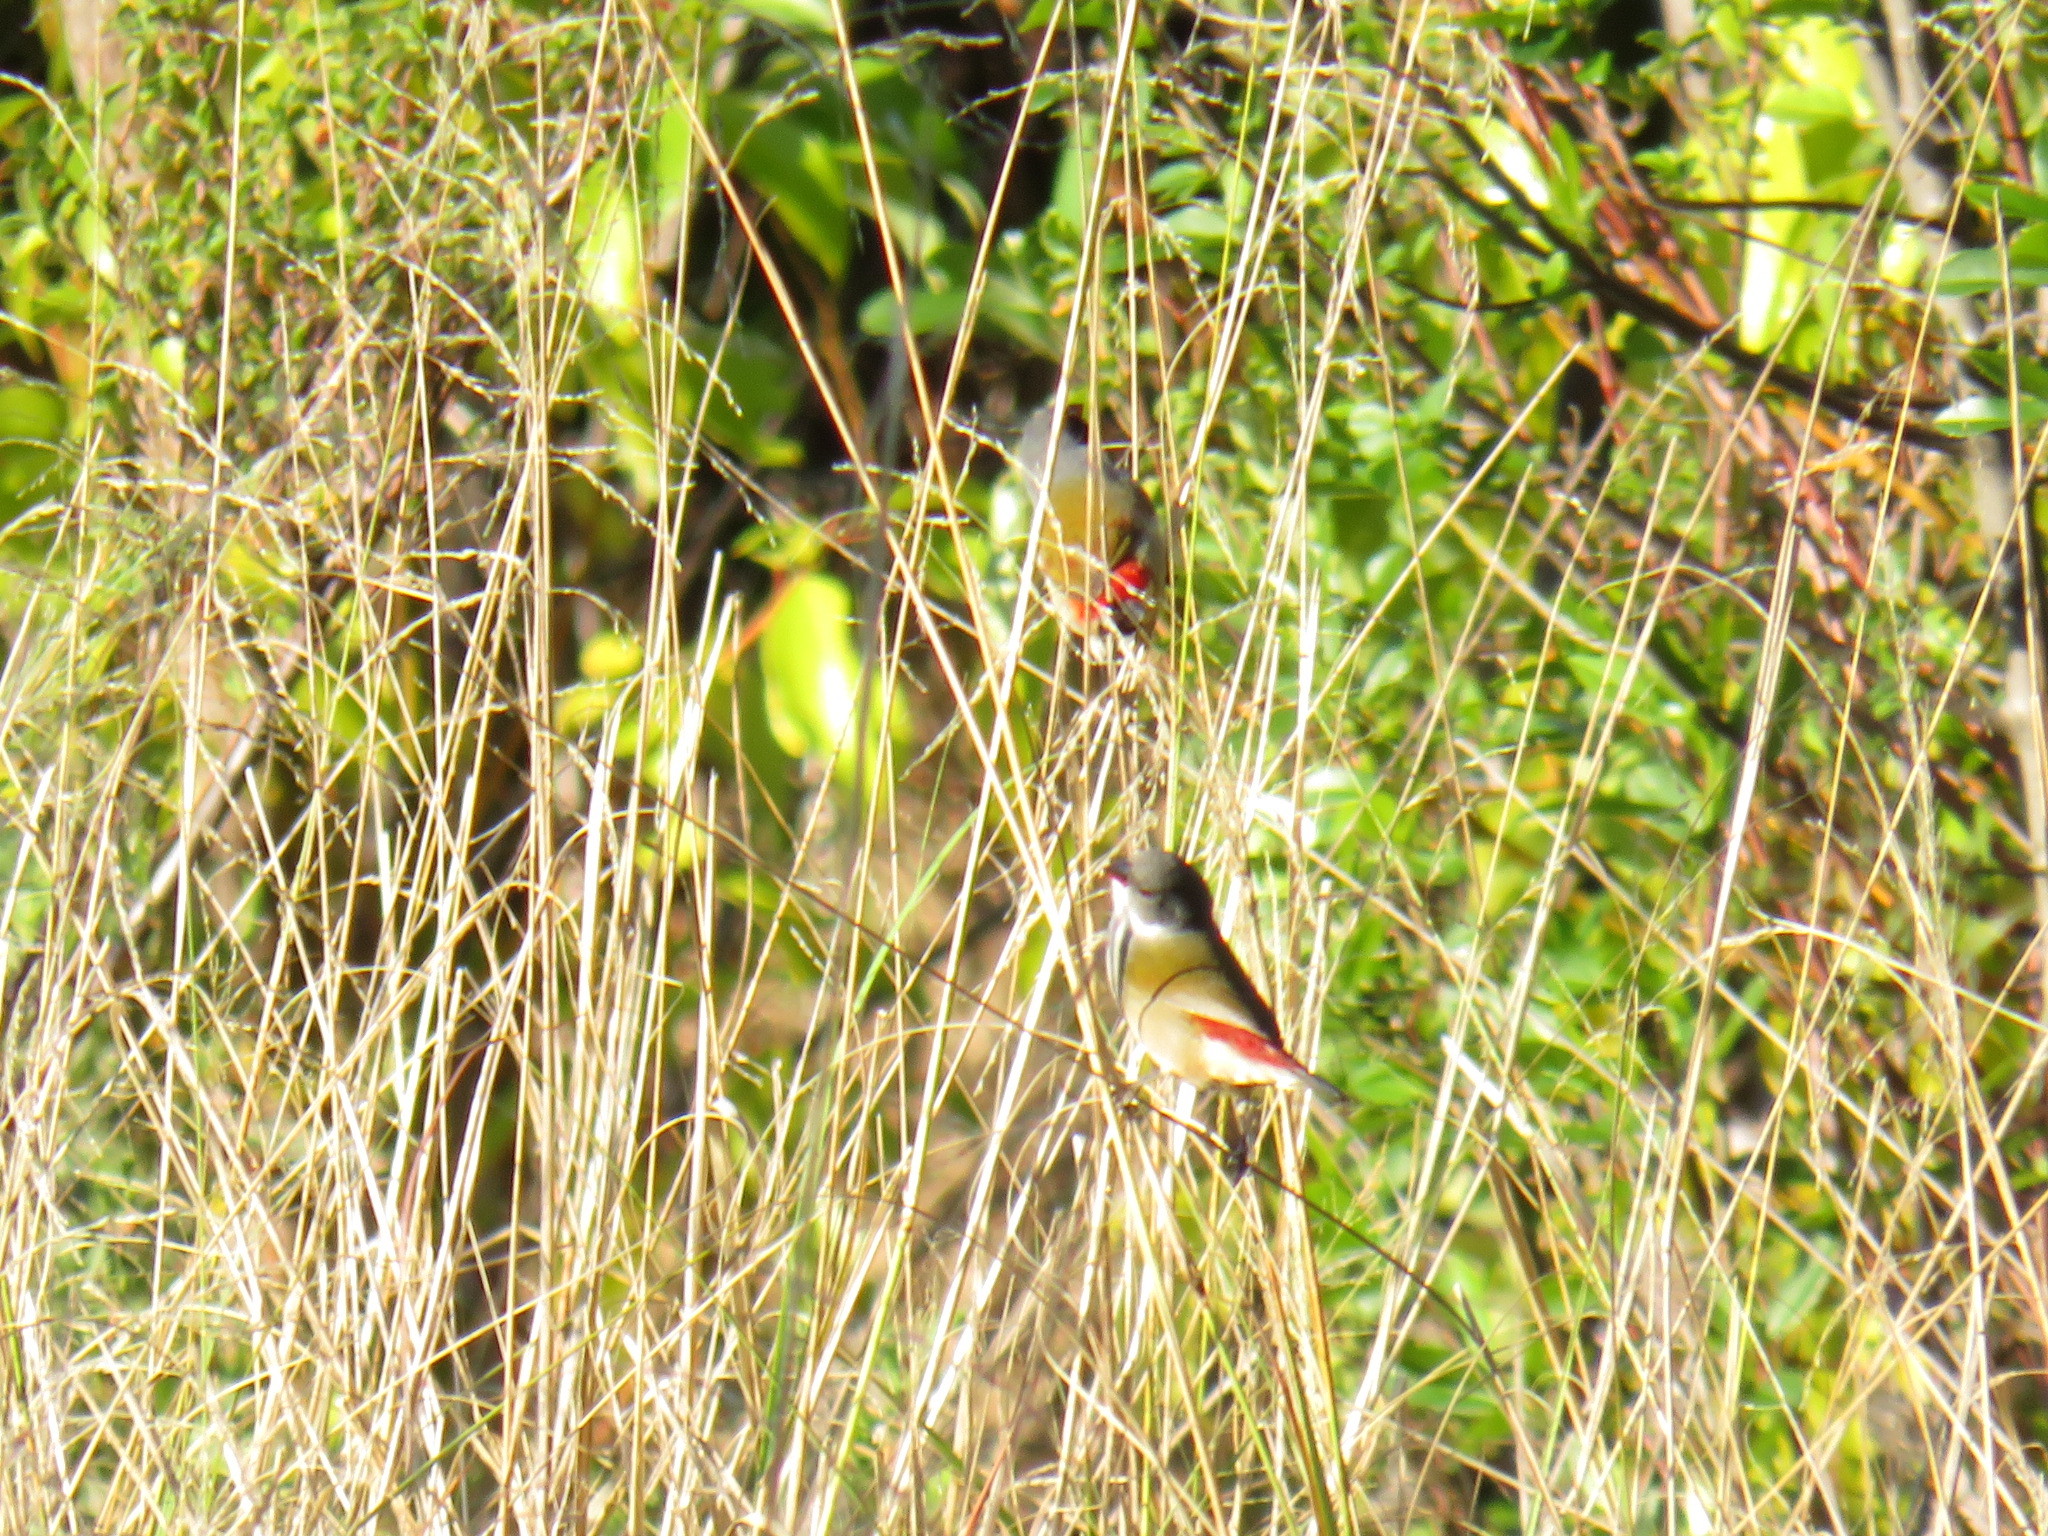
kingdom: Animalia
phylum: Chordata
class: Aves
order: Passeriformes
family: Estrildidae
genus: Coccopygia
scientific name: Coccopygia melanotis
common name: Swee waxbill
